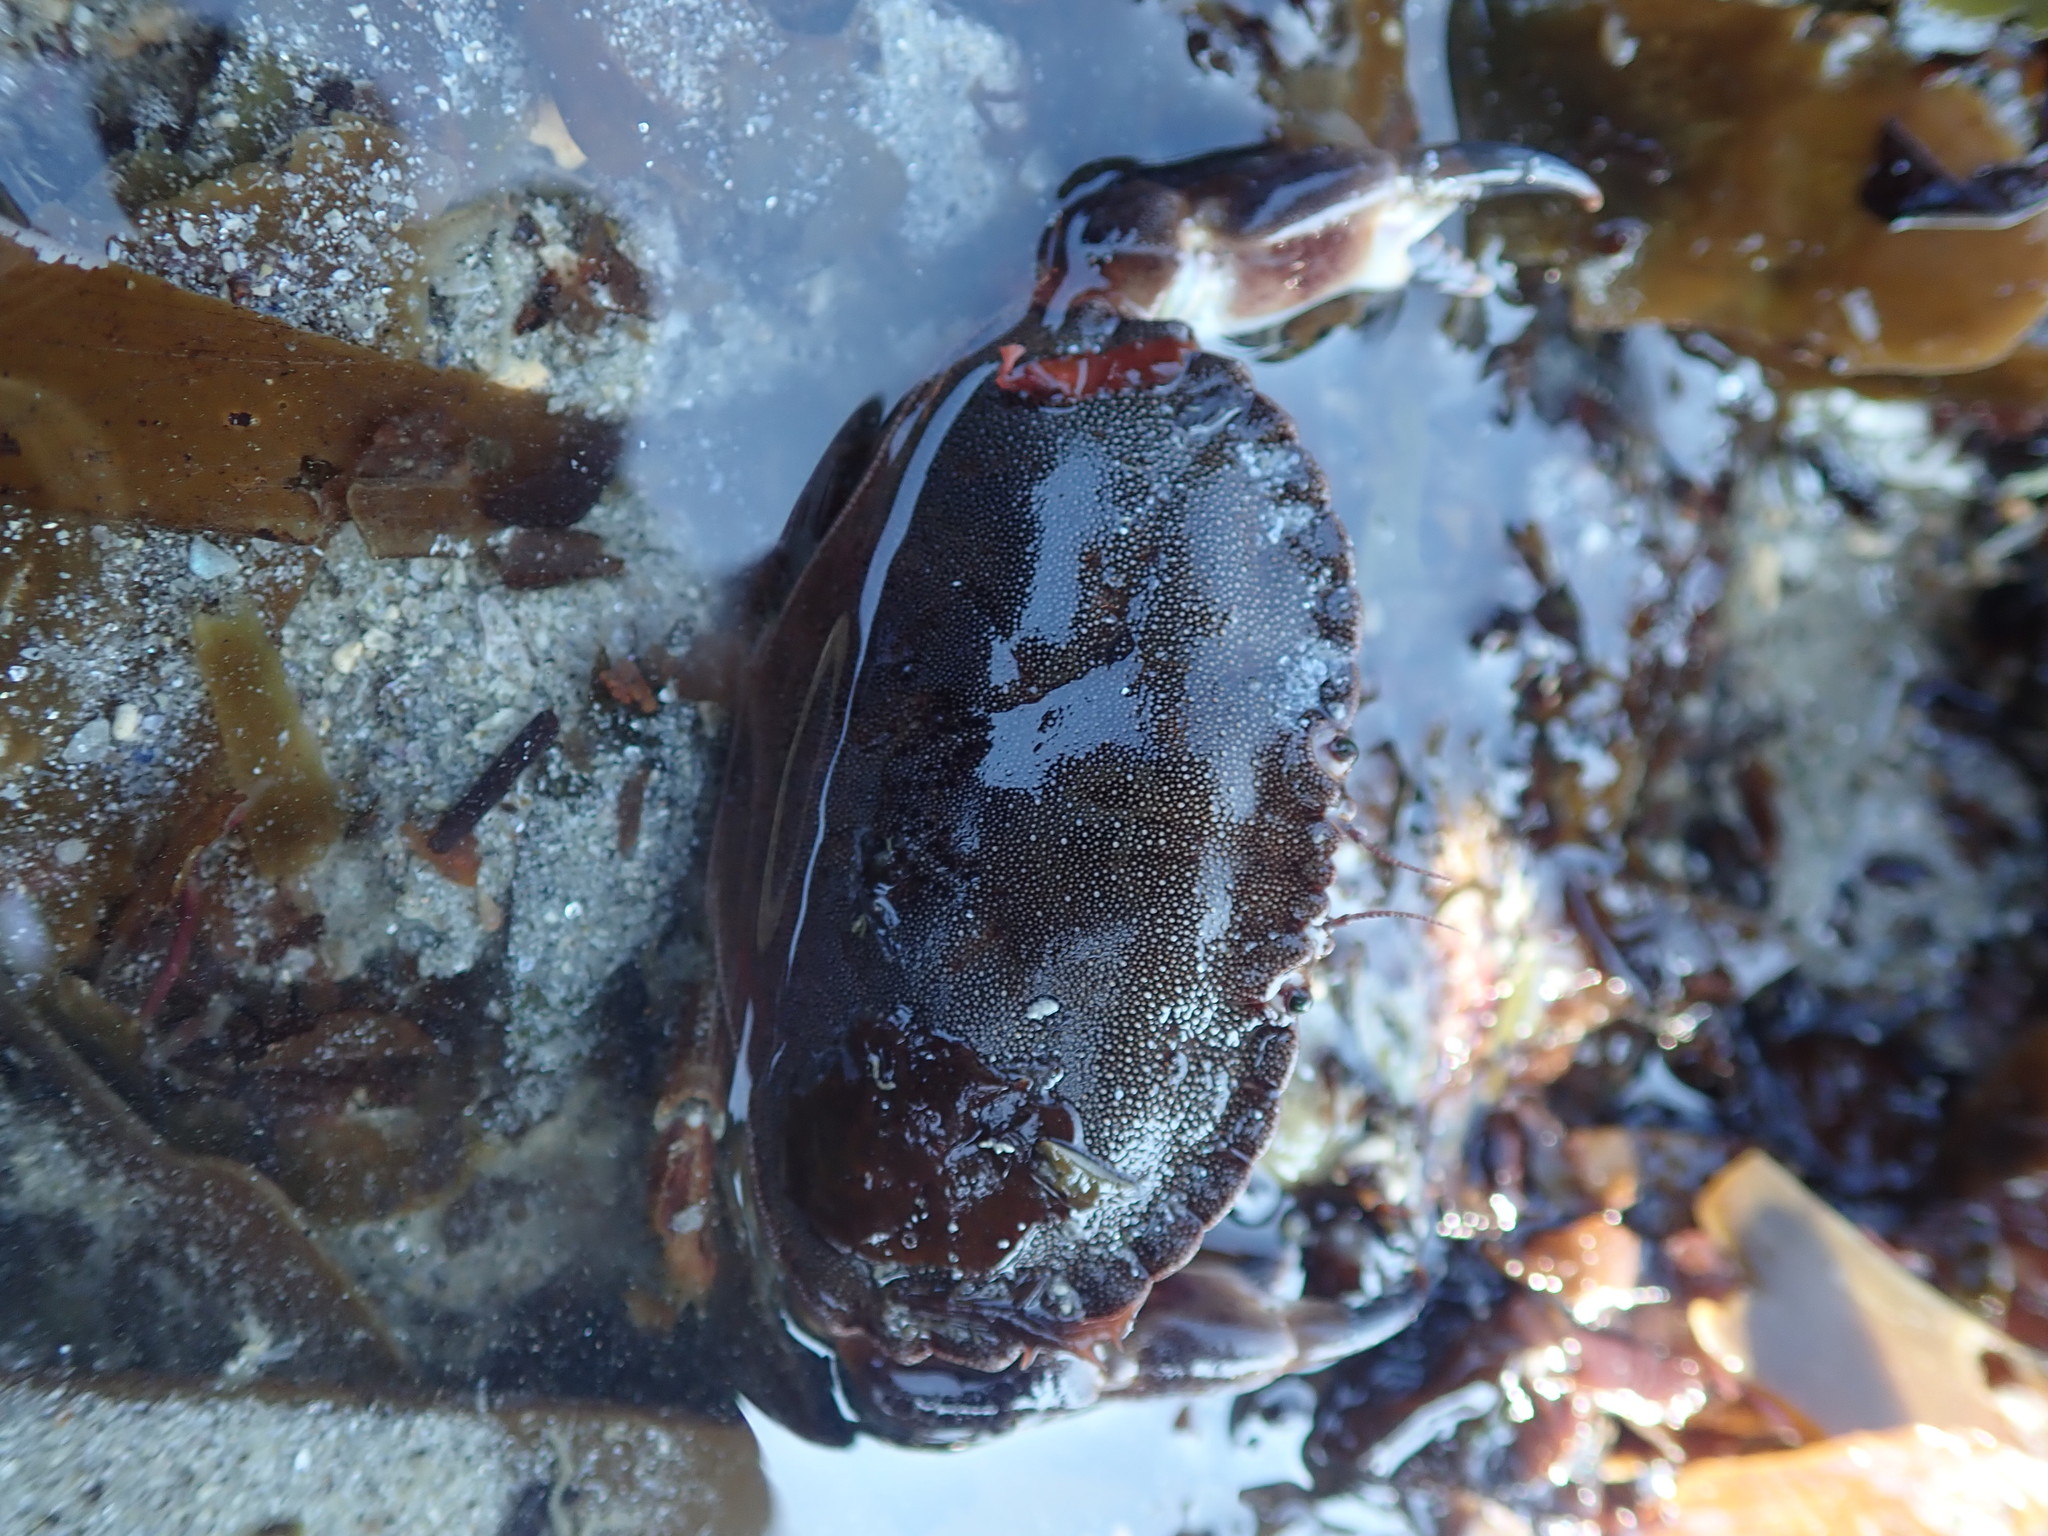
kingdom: Animalia
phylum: Arthropoda
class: Malacostraca
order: Decapoda
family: Cancridae
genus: Cancer
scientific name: Cancer pagurus
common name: Edible crab
